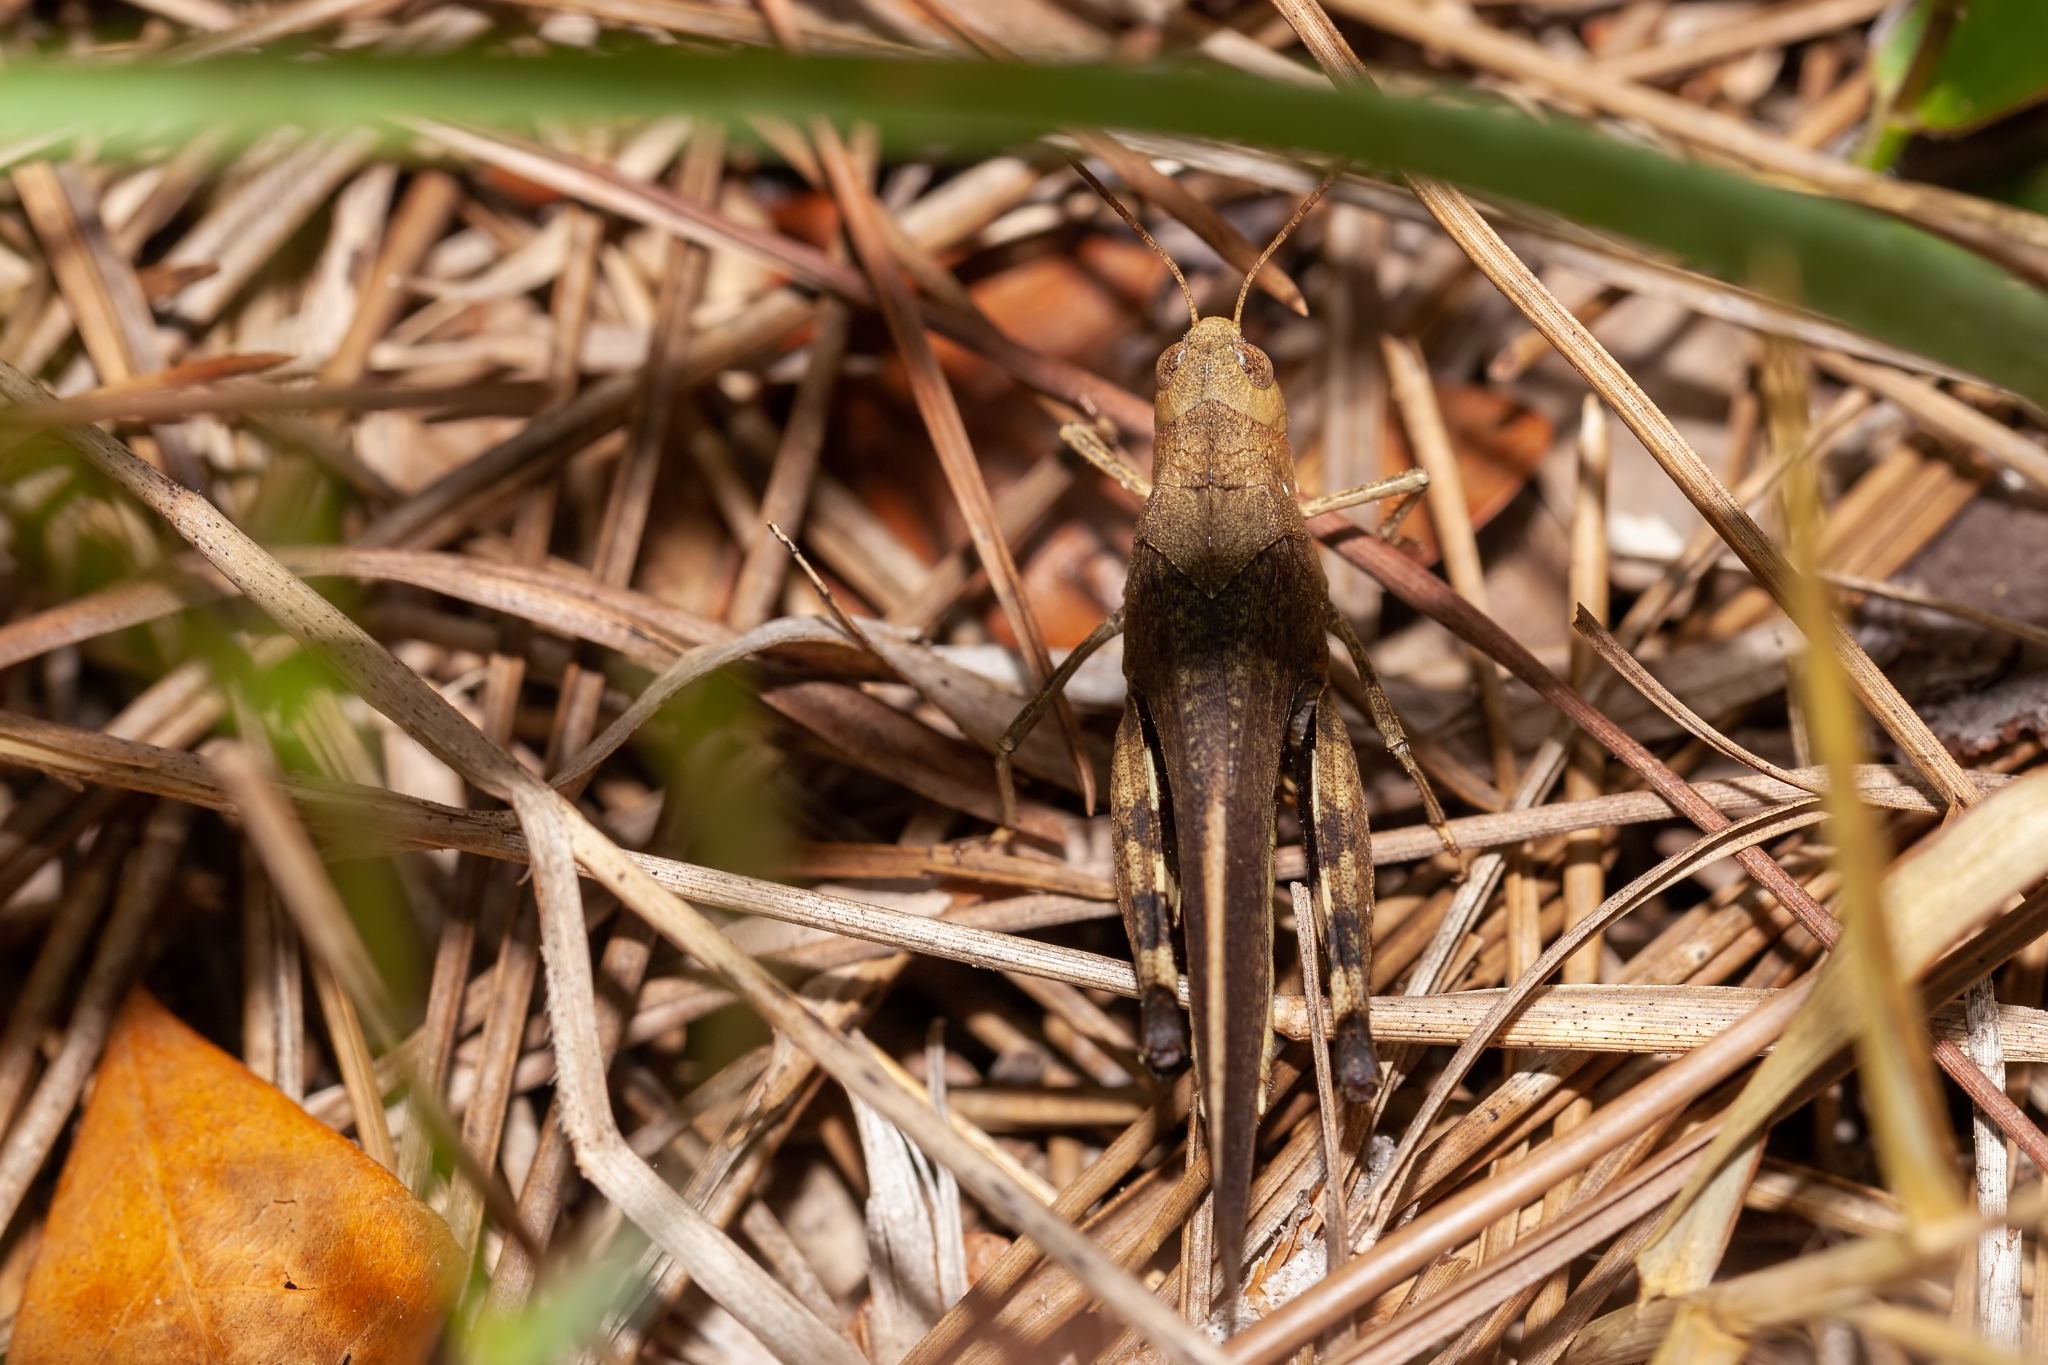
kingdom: Animalia
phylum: Arthropoda
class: Insecta
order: Orthoptera
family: Acrididae
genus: Arphia
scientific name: Arphia granulata
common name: Southern yellow-winged grasshopper
